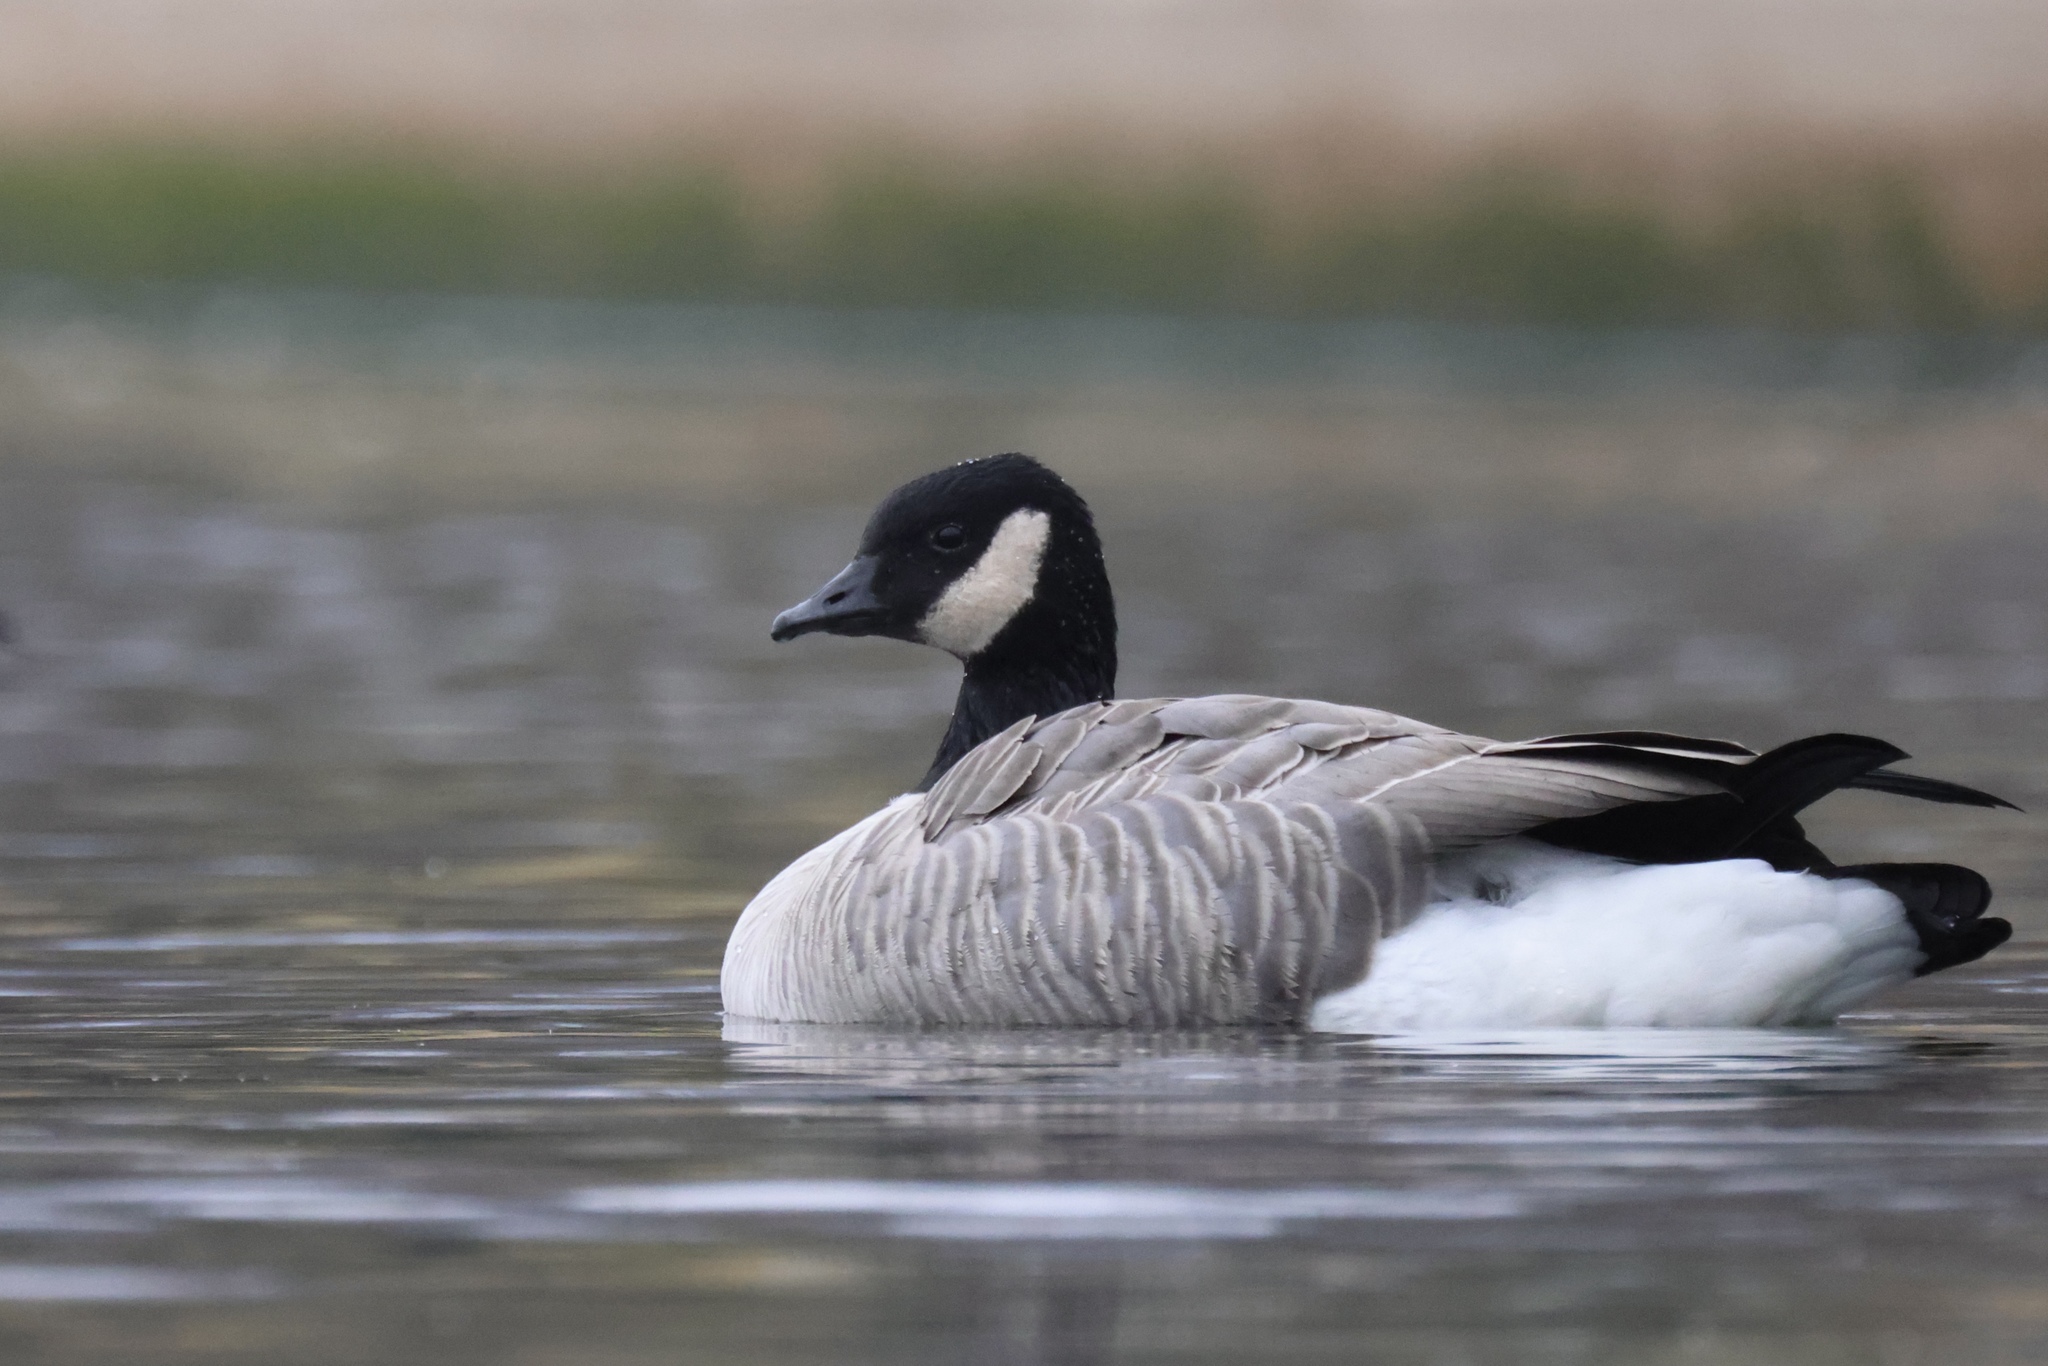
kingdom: Animalia
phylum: Chordata
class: Aves
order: Anseriformes
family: Anatidae
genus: Branta
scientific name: Branta hutchinsii
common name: Cackling goose
